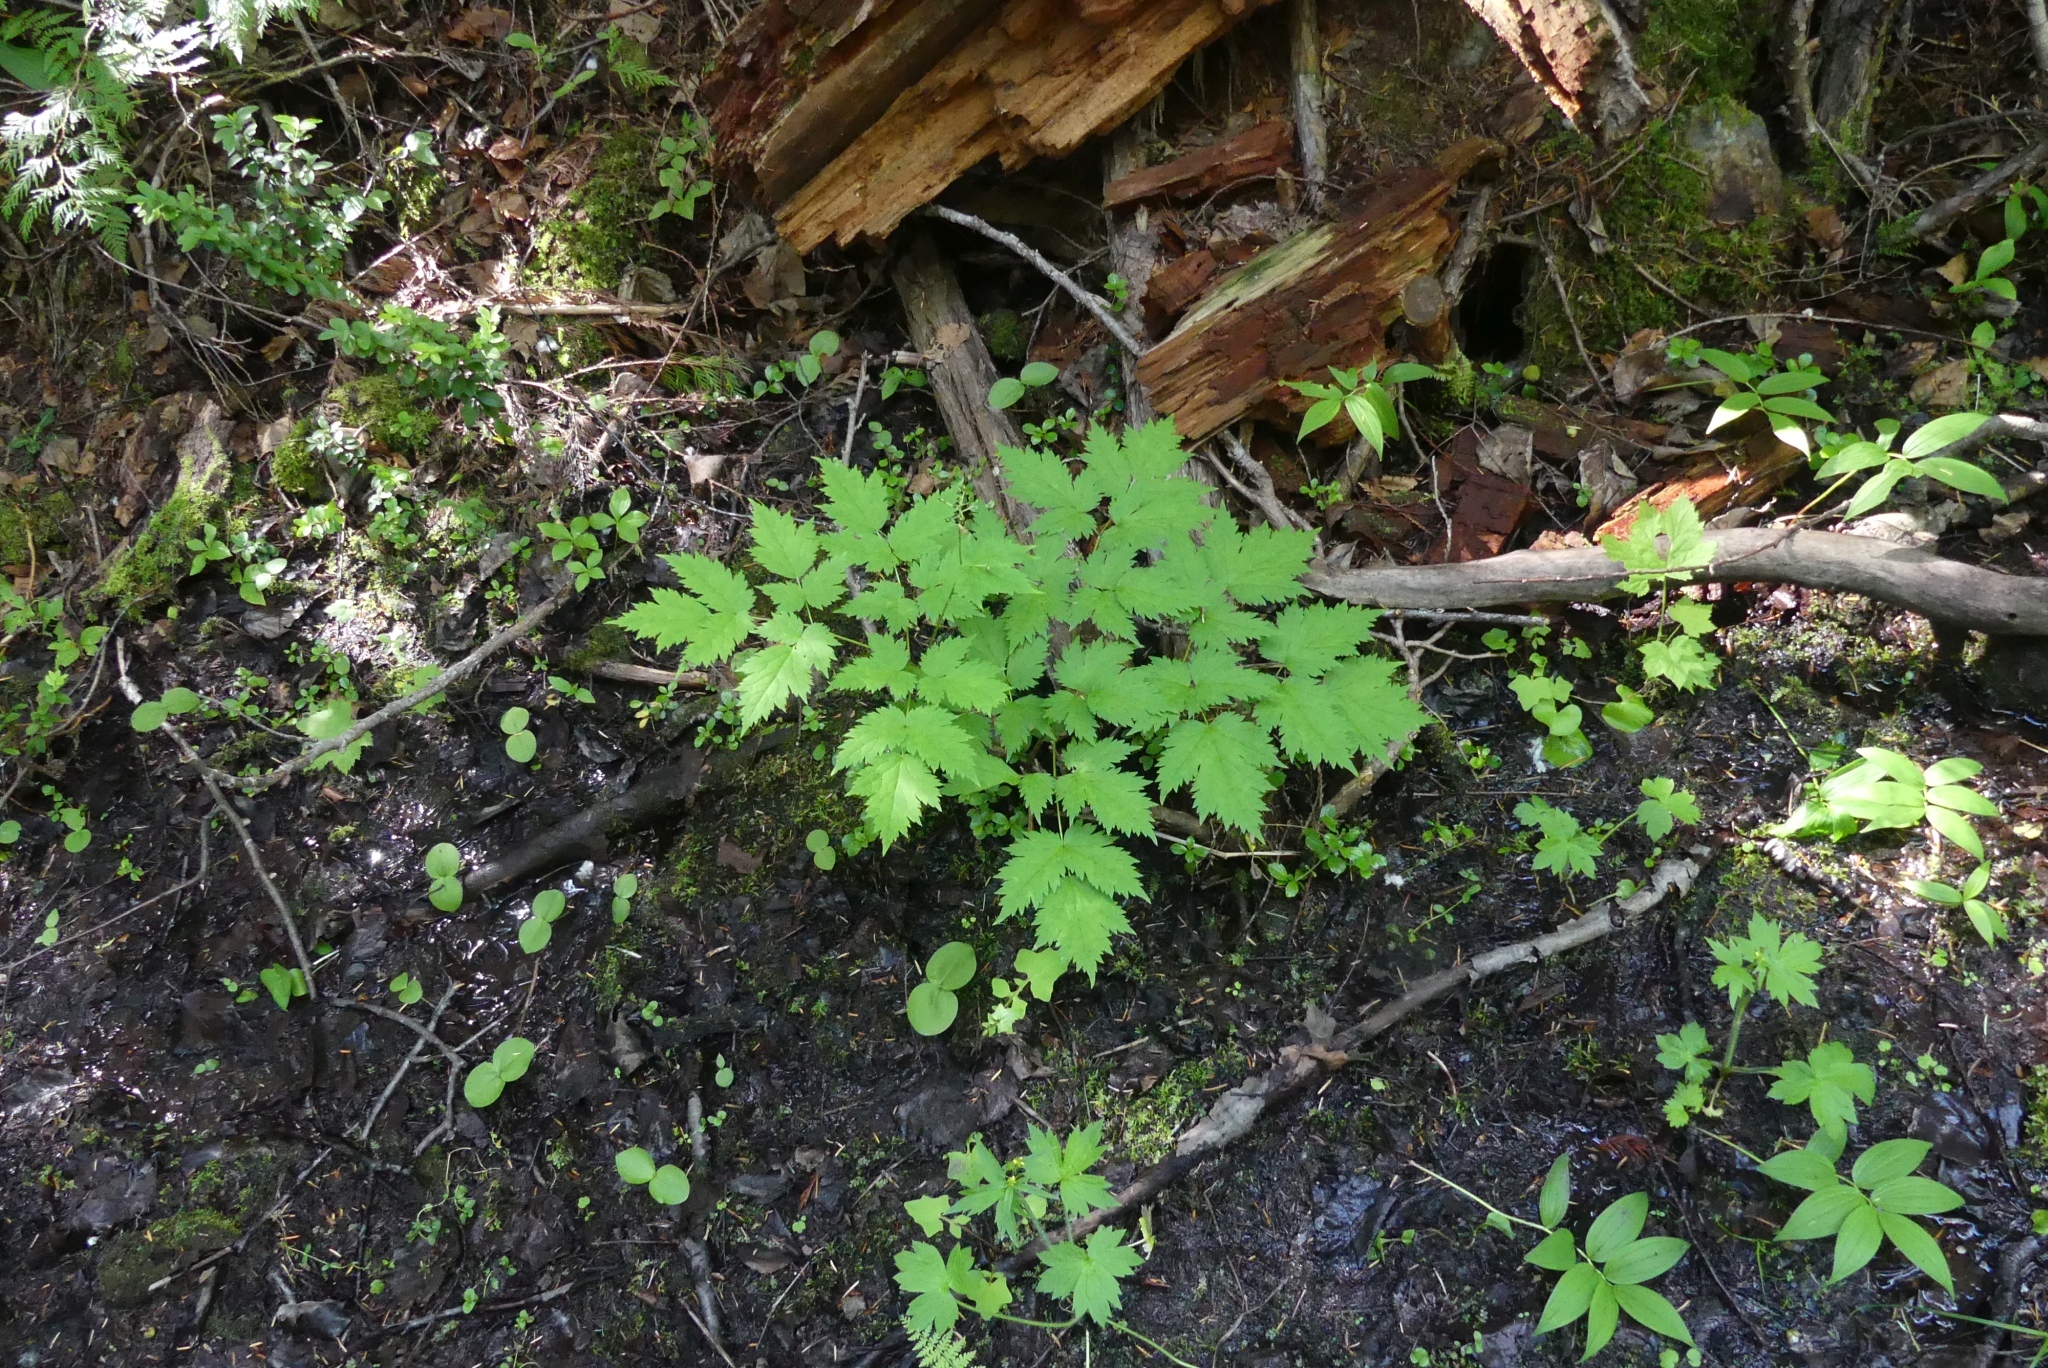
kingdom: Plantae
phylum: Tracheophyta
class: Magnoliopsida
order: Ranunculales
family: Ranunculaceae
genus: Actaea
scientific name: Actaea rubra
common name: Red baneberry
